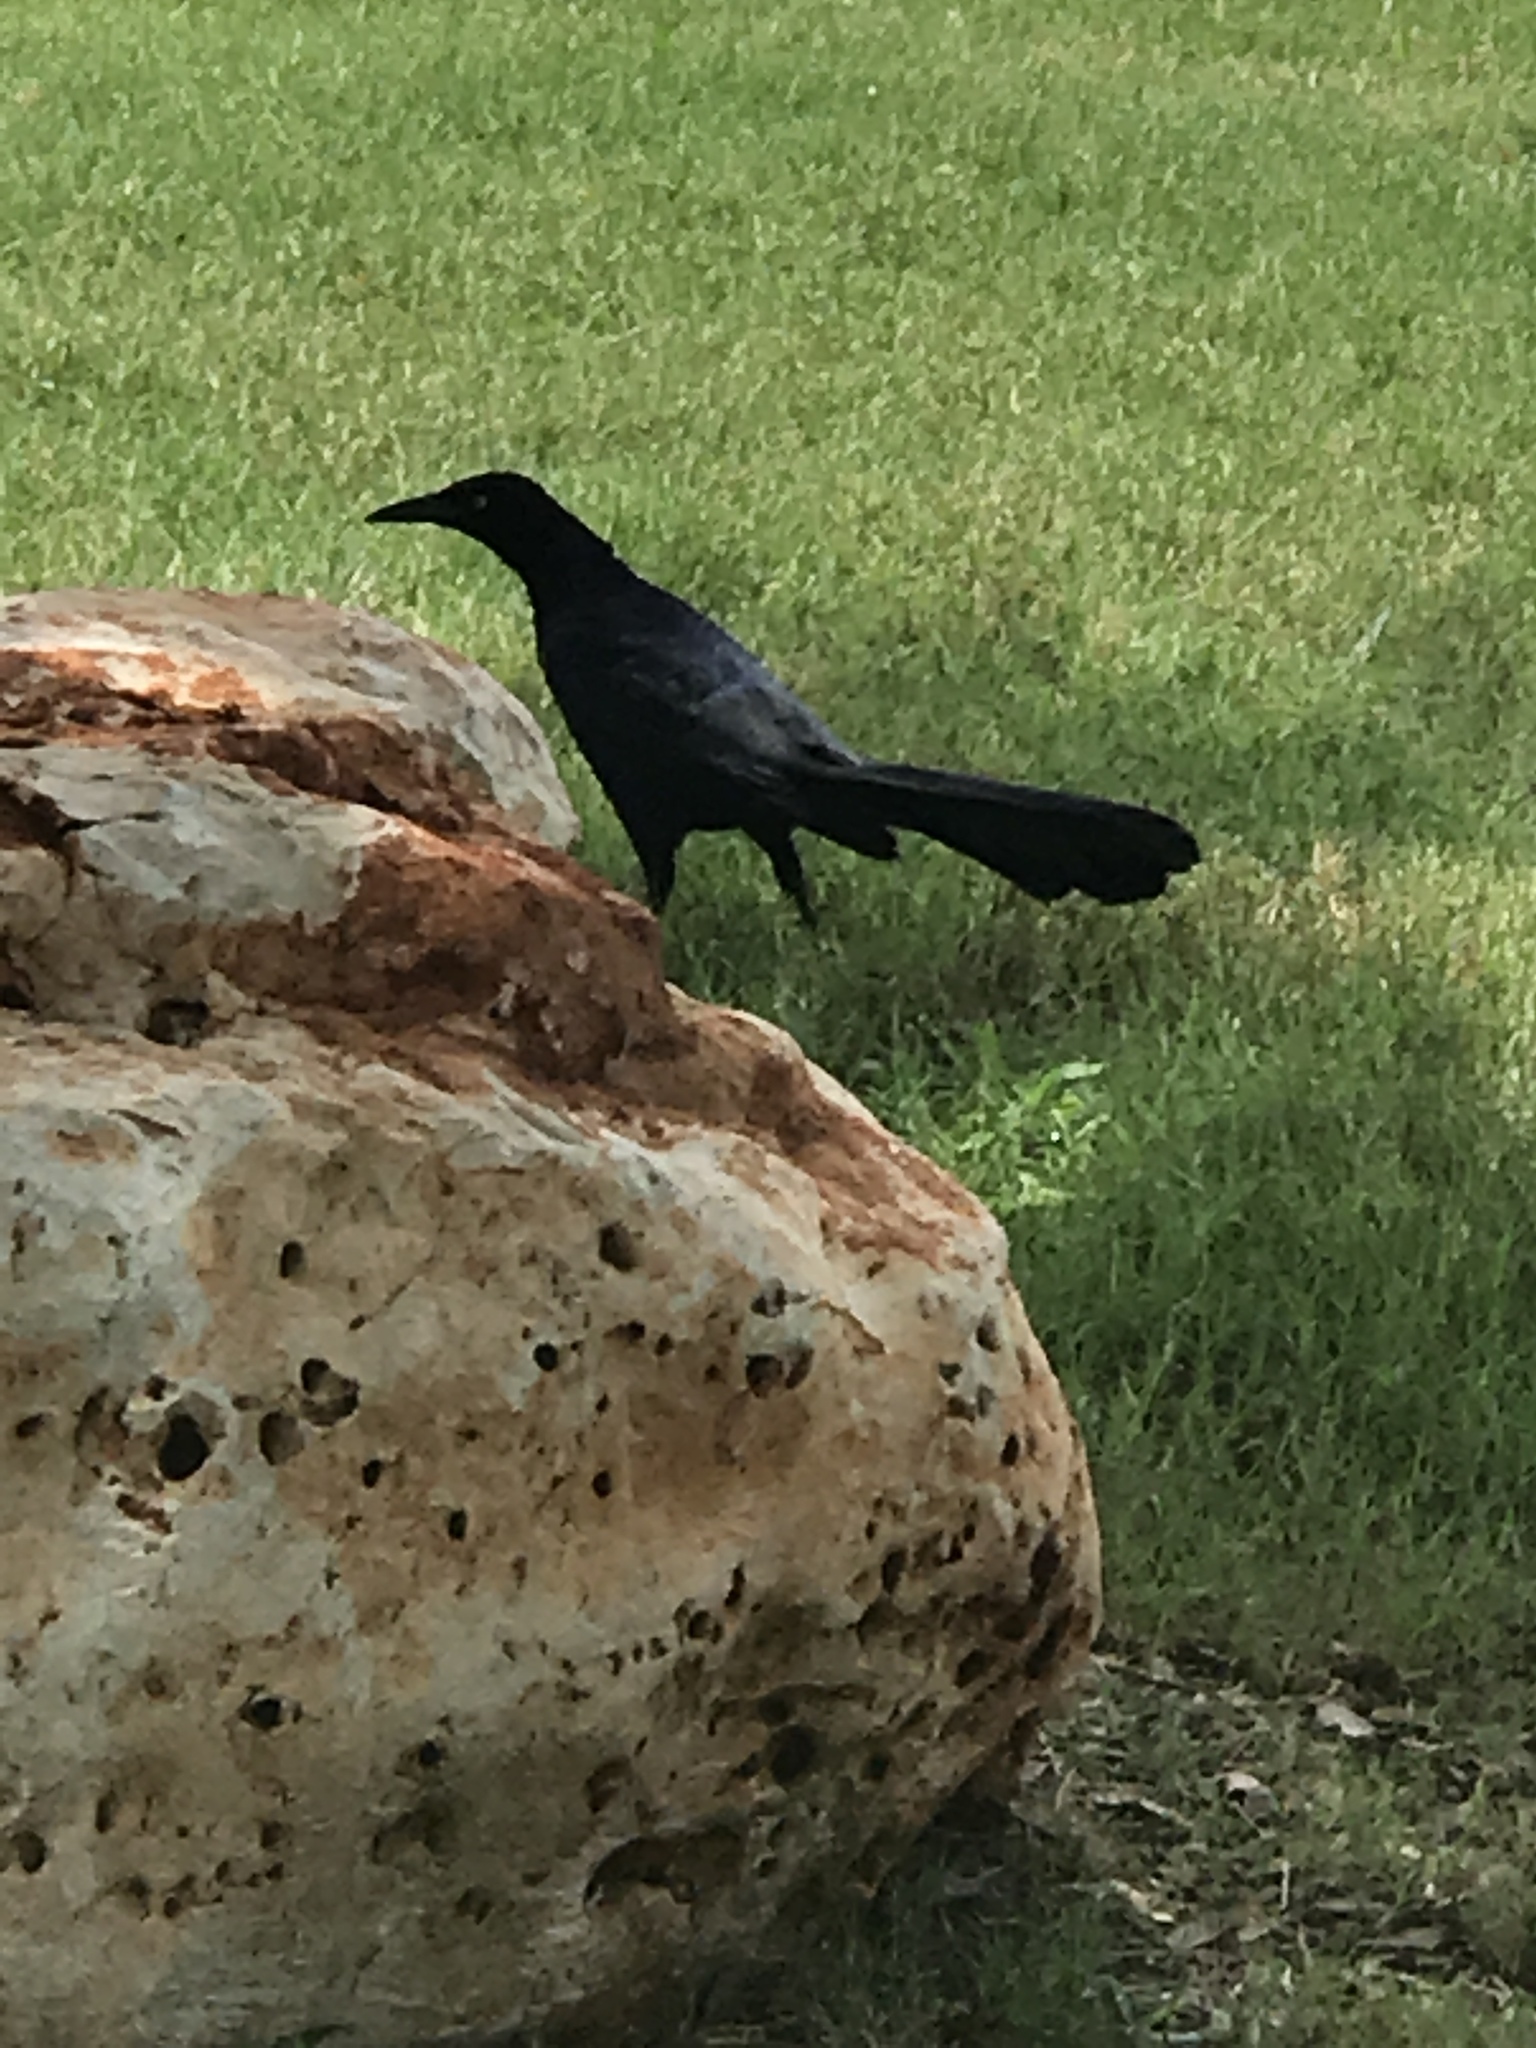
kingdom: Animalia
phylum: Chordata
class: Aves
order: Passeriformes
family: Icteridae
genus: Quiscalus
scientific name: Quiscalus mexicanus
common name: Great-tailed grackle
